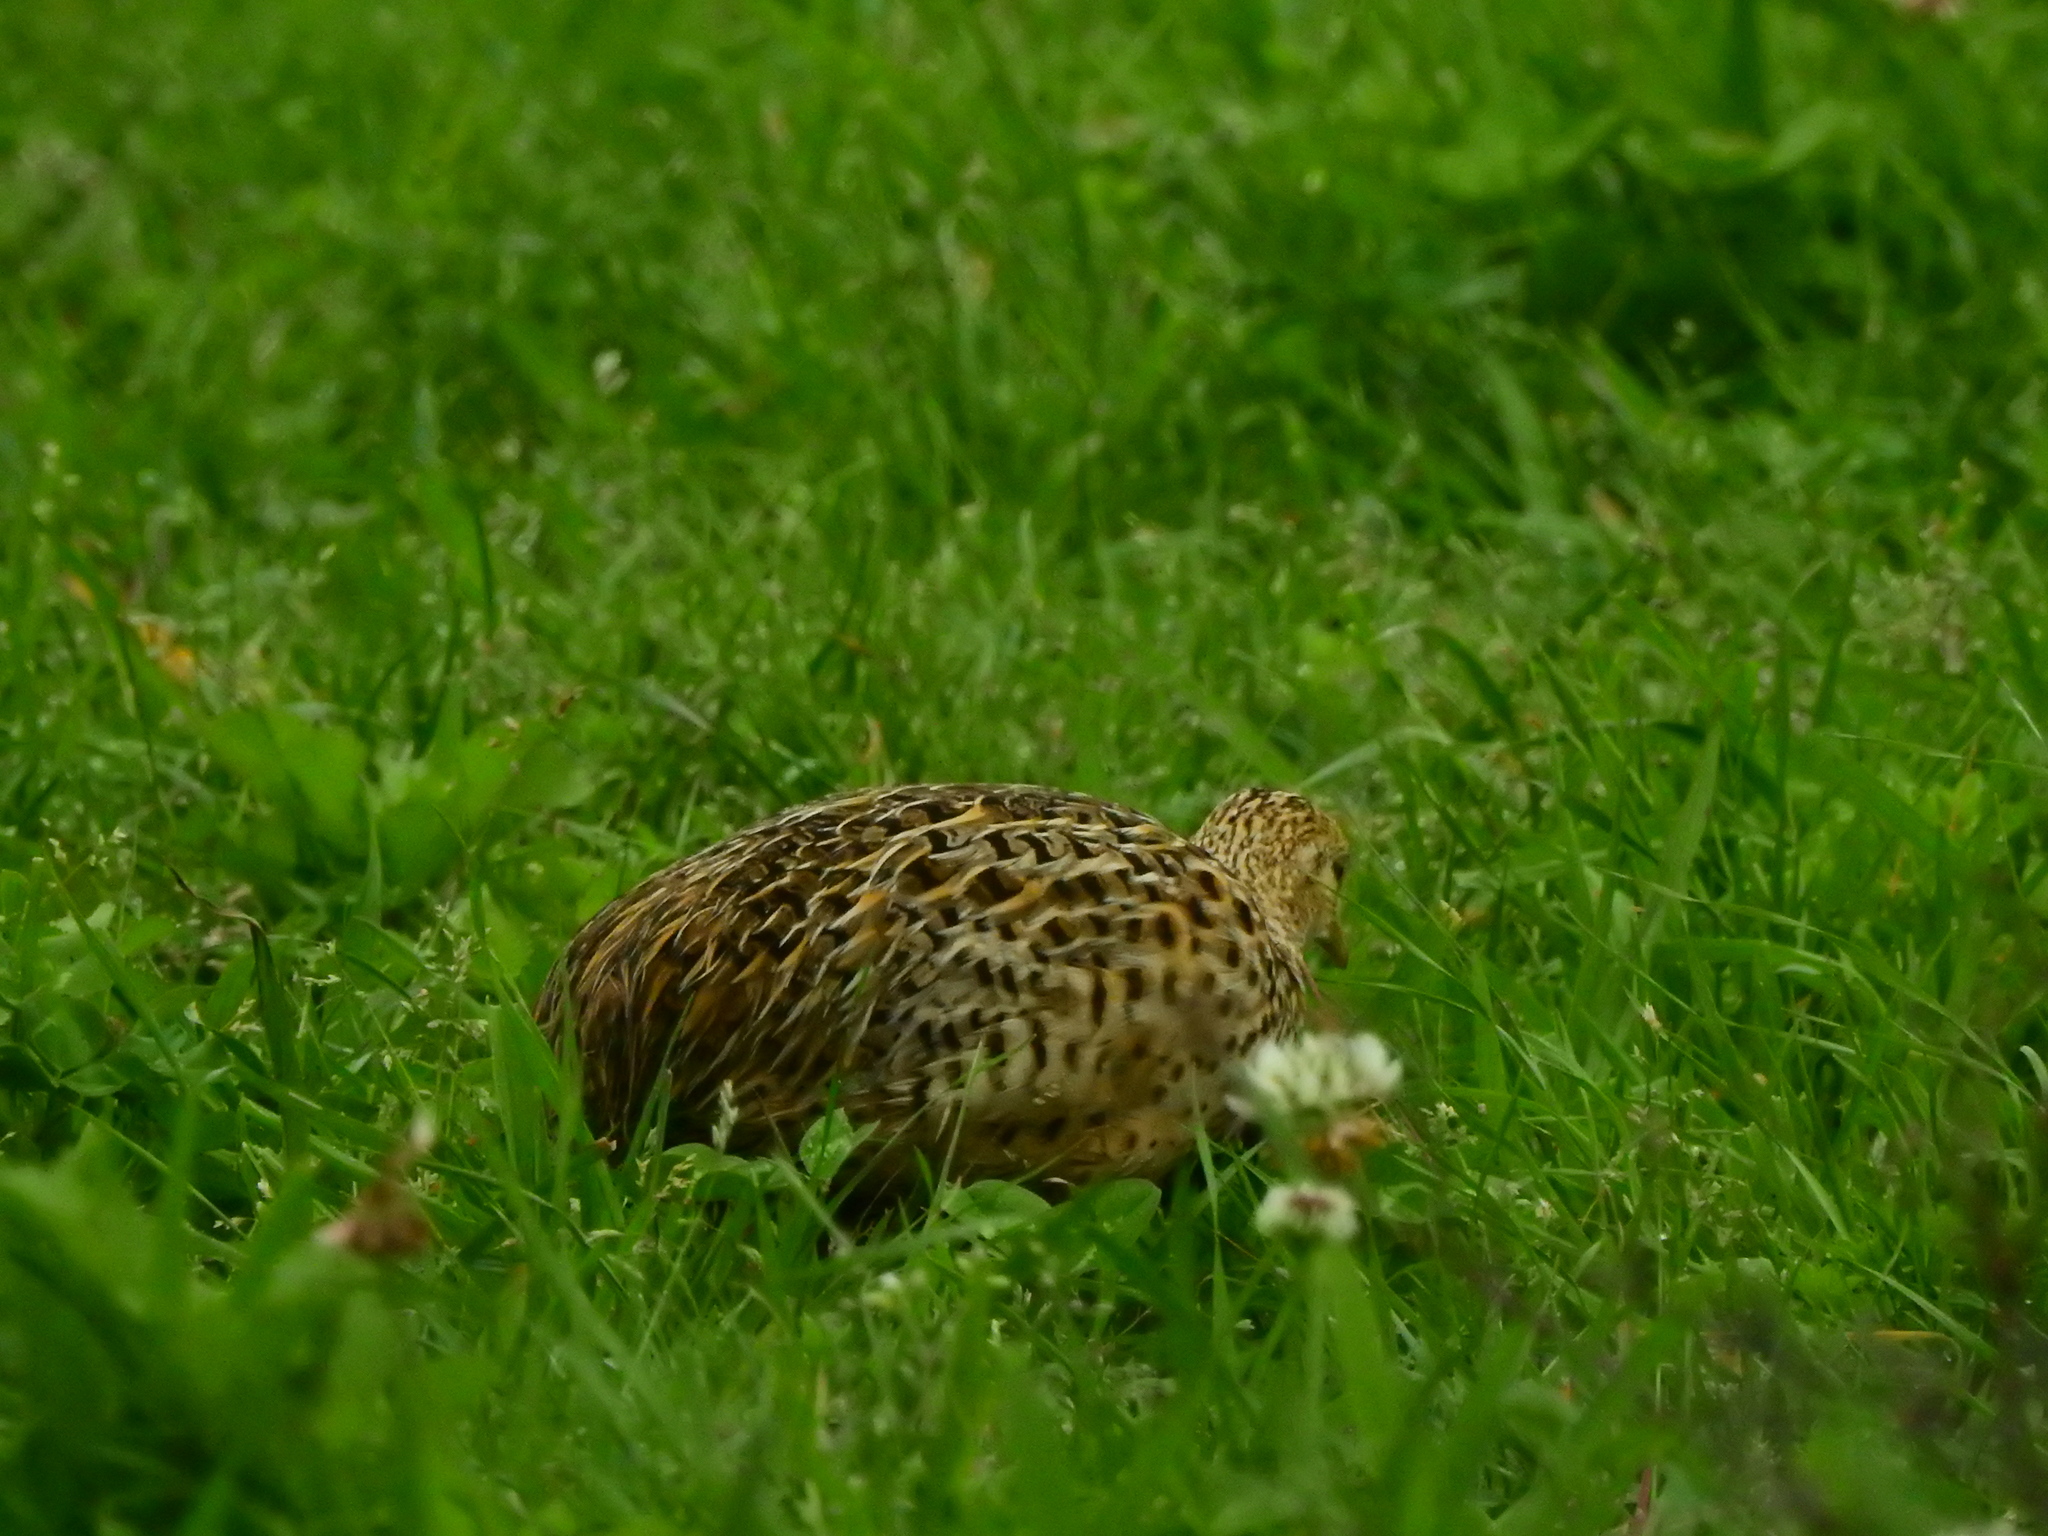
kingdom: Animalia
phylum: Chordata
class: Aves
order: Tinamiformes
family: Tinamidae
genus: Nothura
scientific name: Nothura maculosa
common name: Spotted nothura
